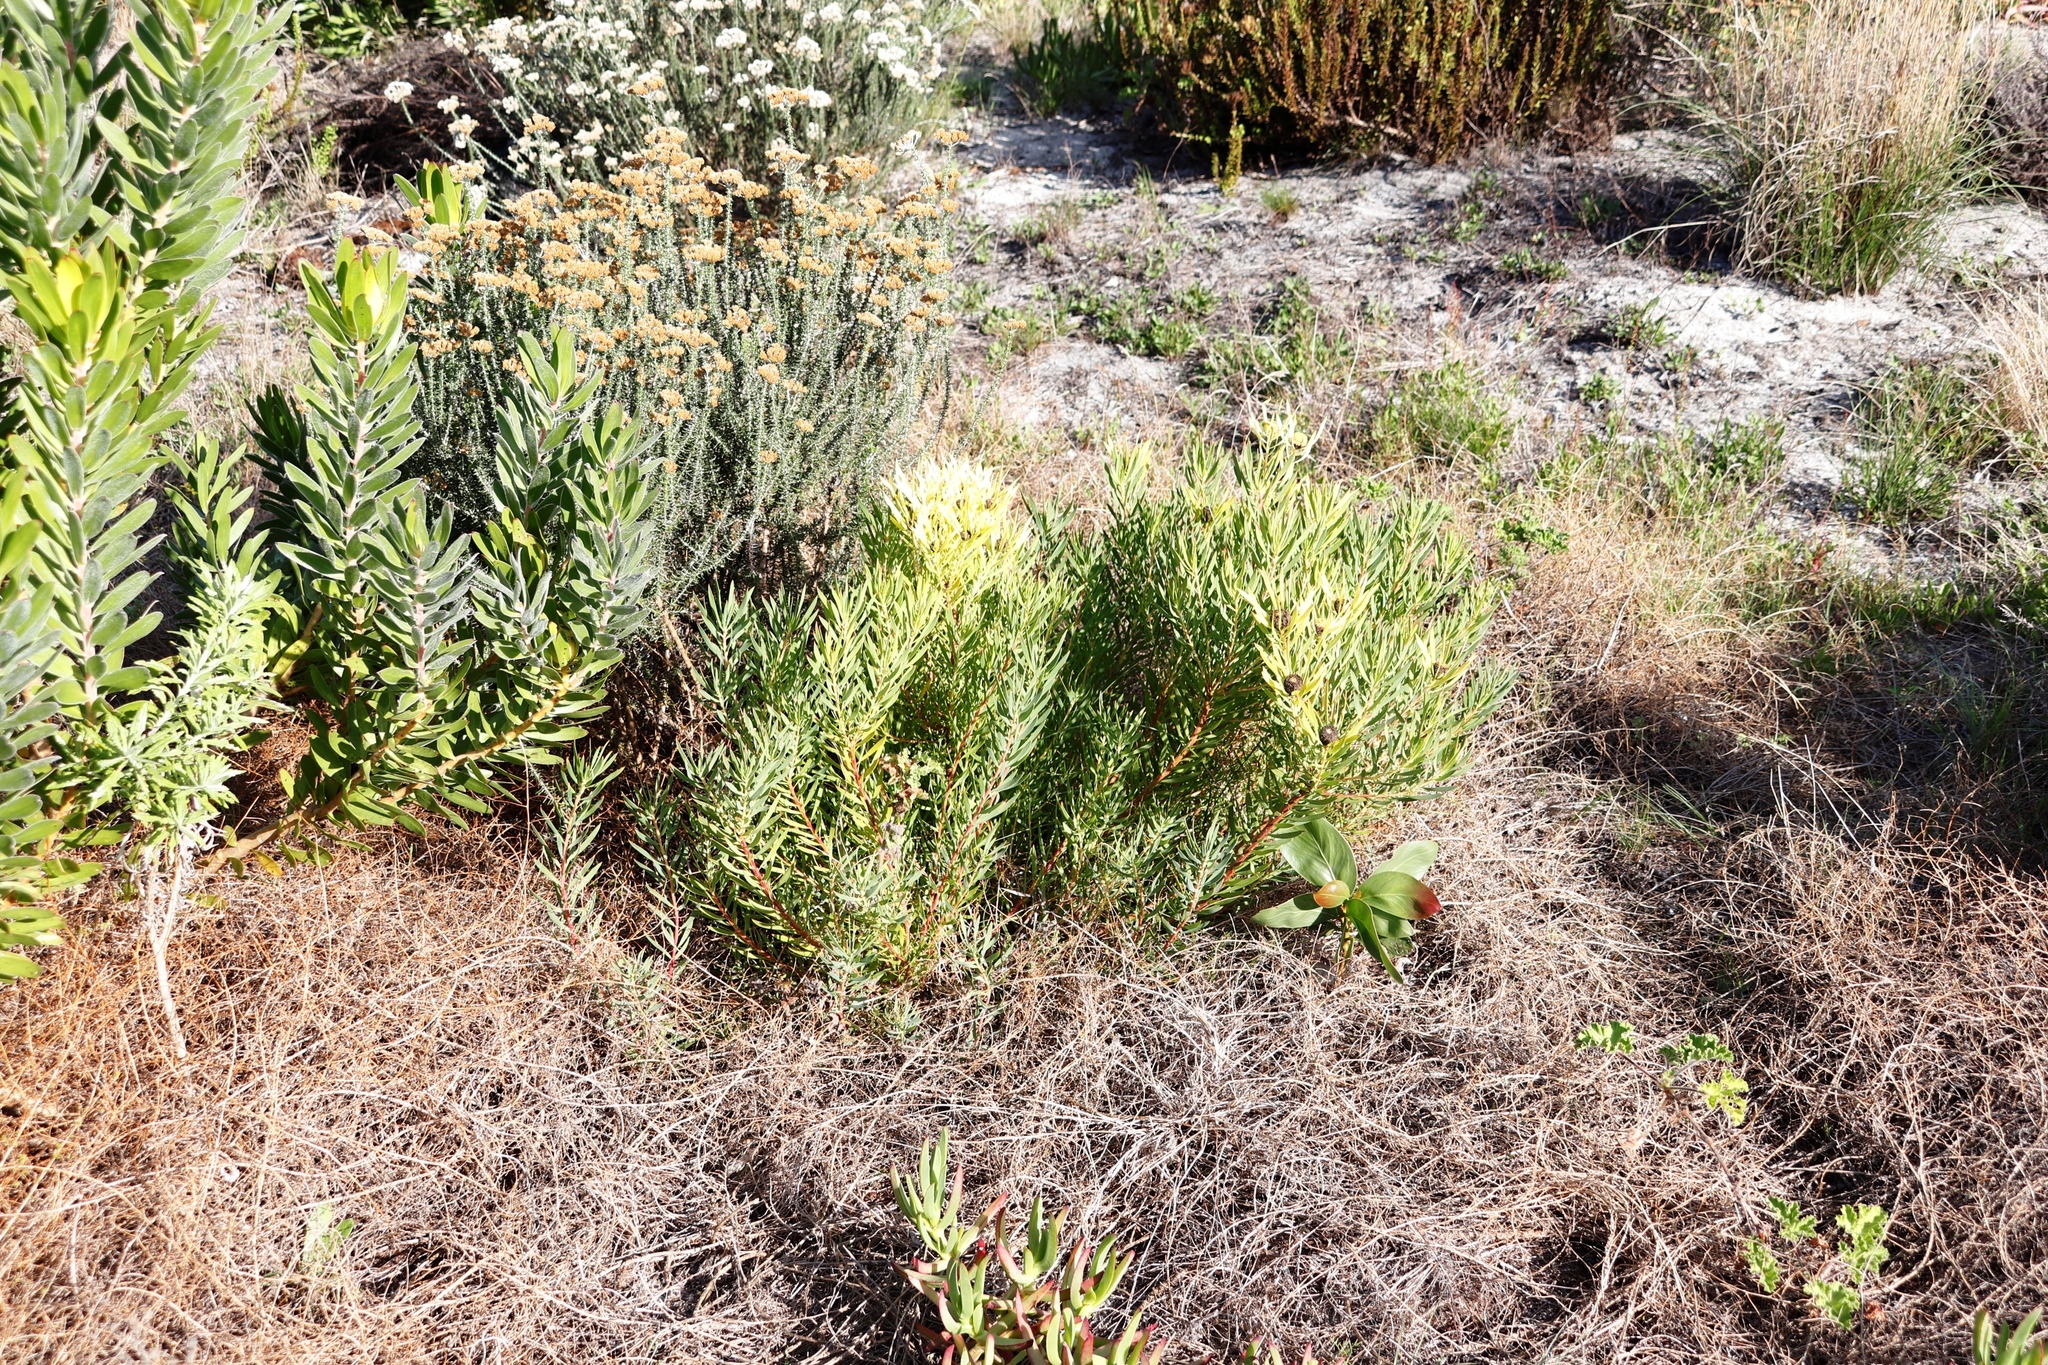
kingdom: Plantae
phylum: Tracheophyta
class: Magnoliopsida
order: Proteales
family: Proteaceae
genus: Leucadendron
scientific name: Leucadendron salignum
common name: Common sunshine conebush
